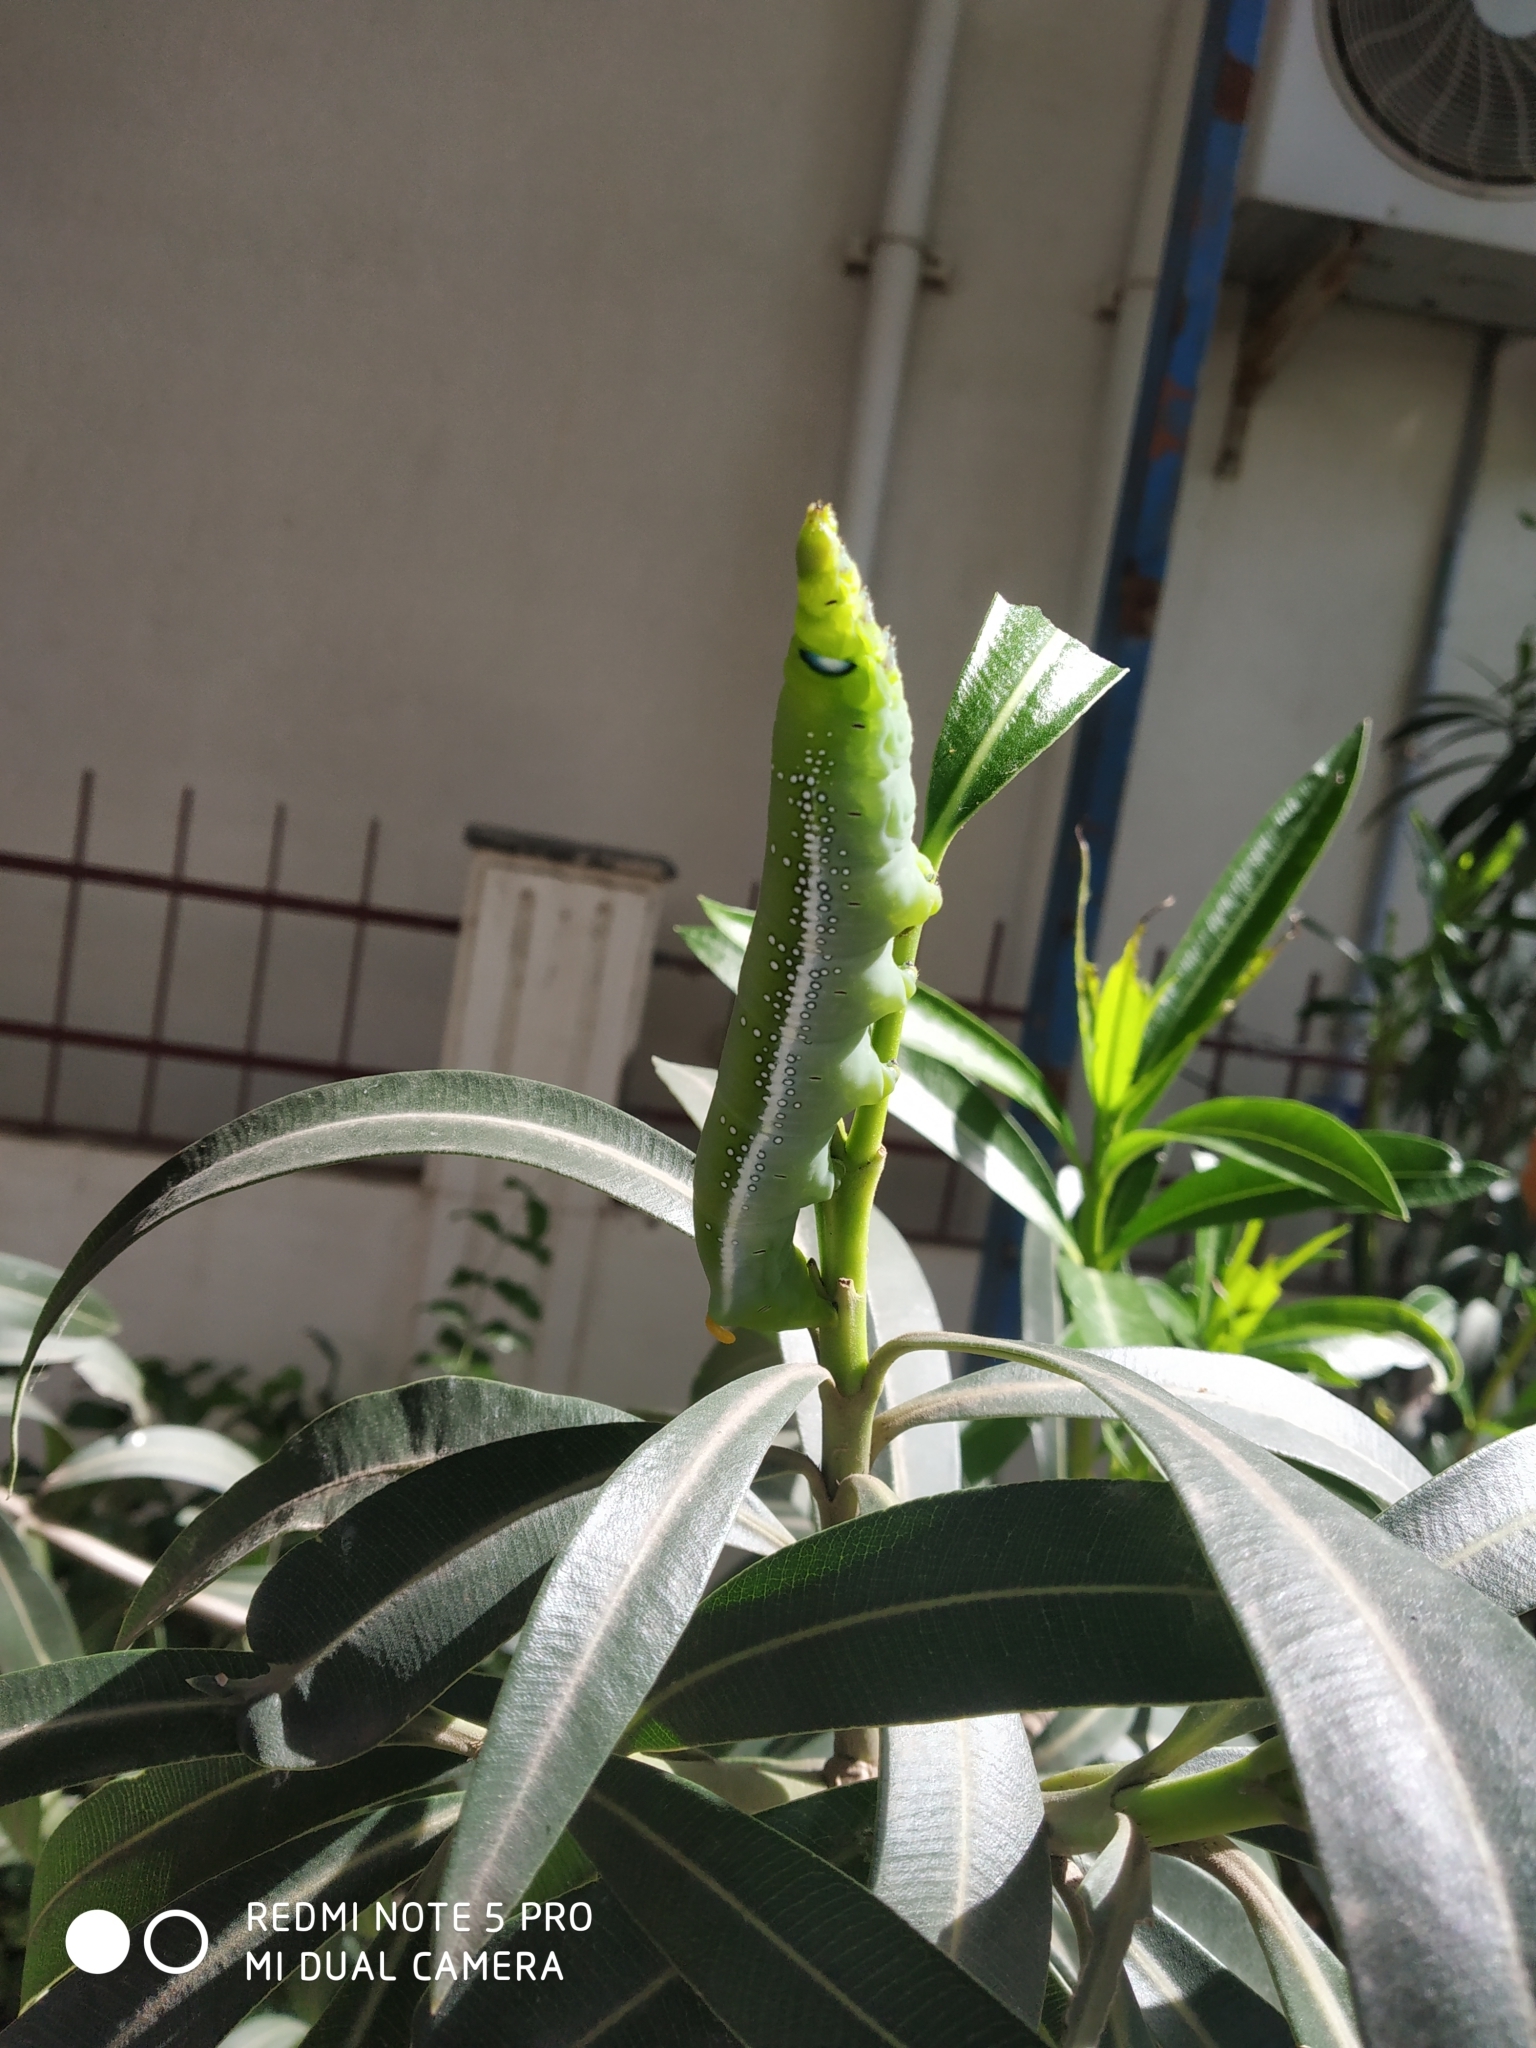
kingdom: Animalia
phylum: Arthropoda
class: Insecta
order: Lepidoptera
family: Sphingidae
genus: Daphnis
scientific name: Daphnis nerii
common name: Oleander hawk-moth
